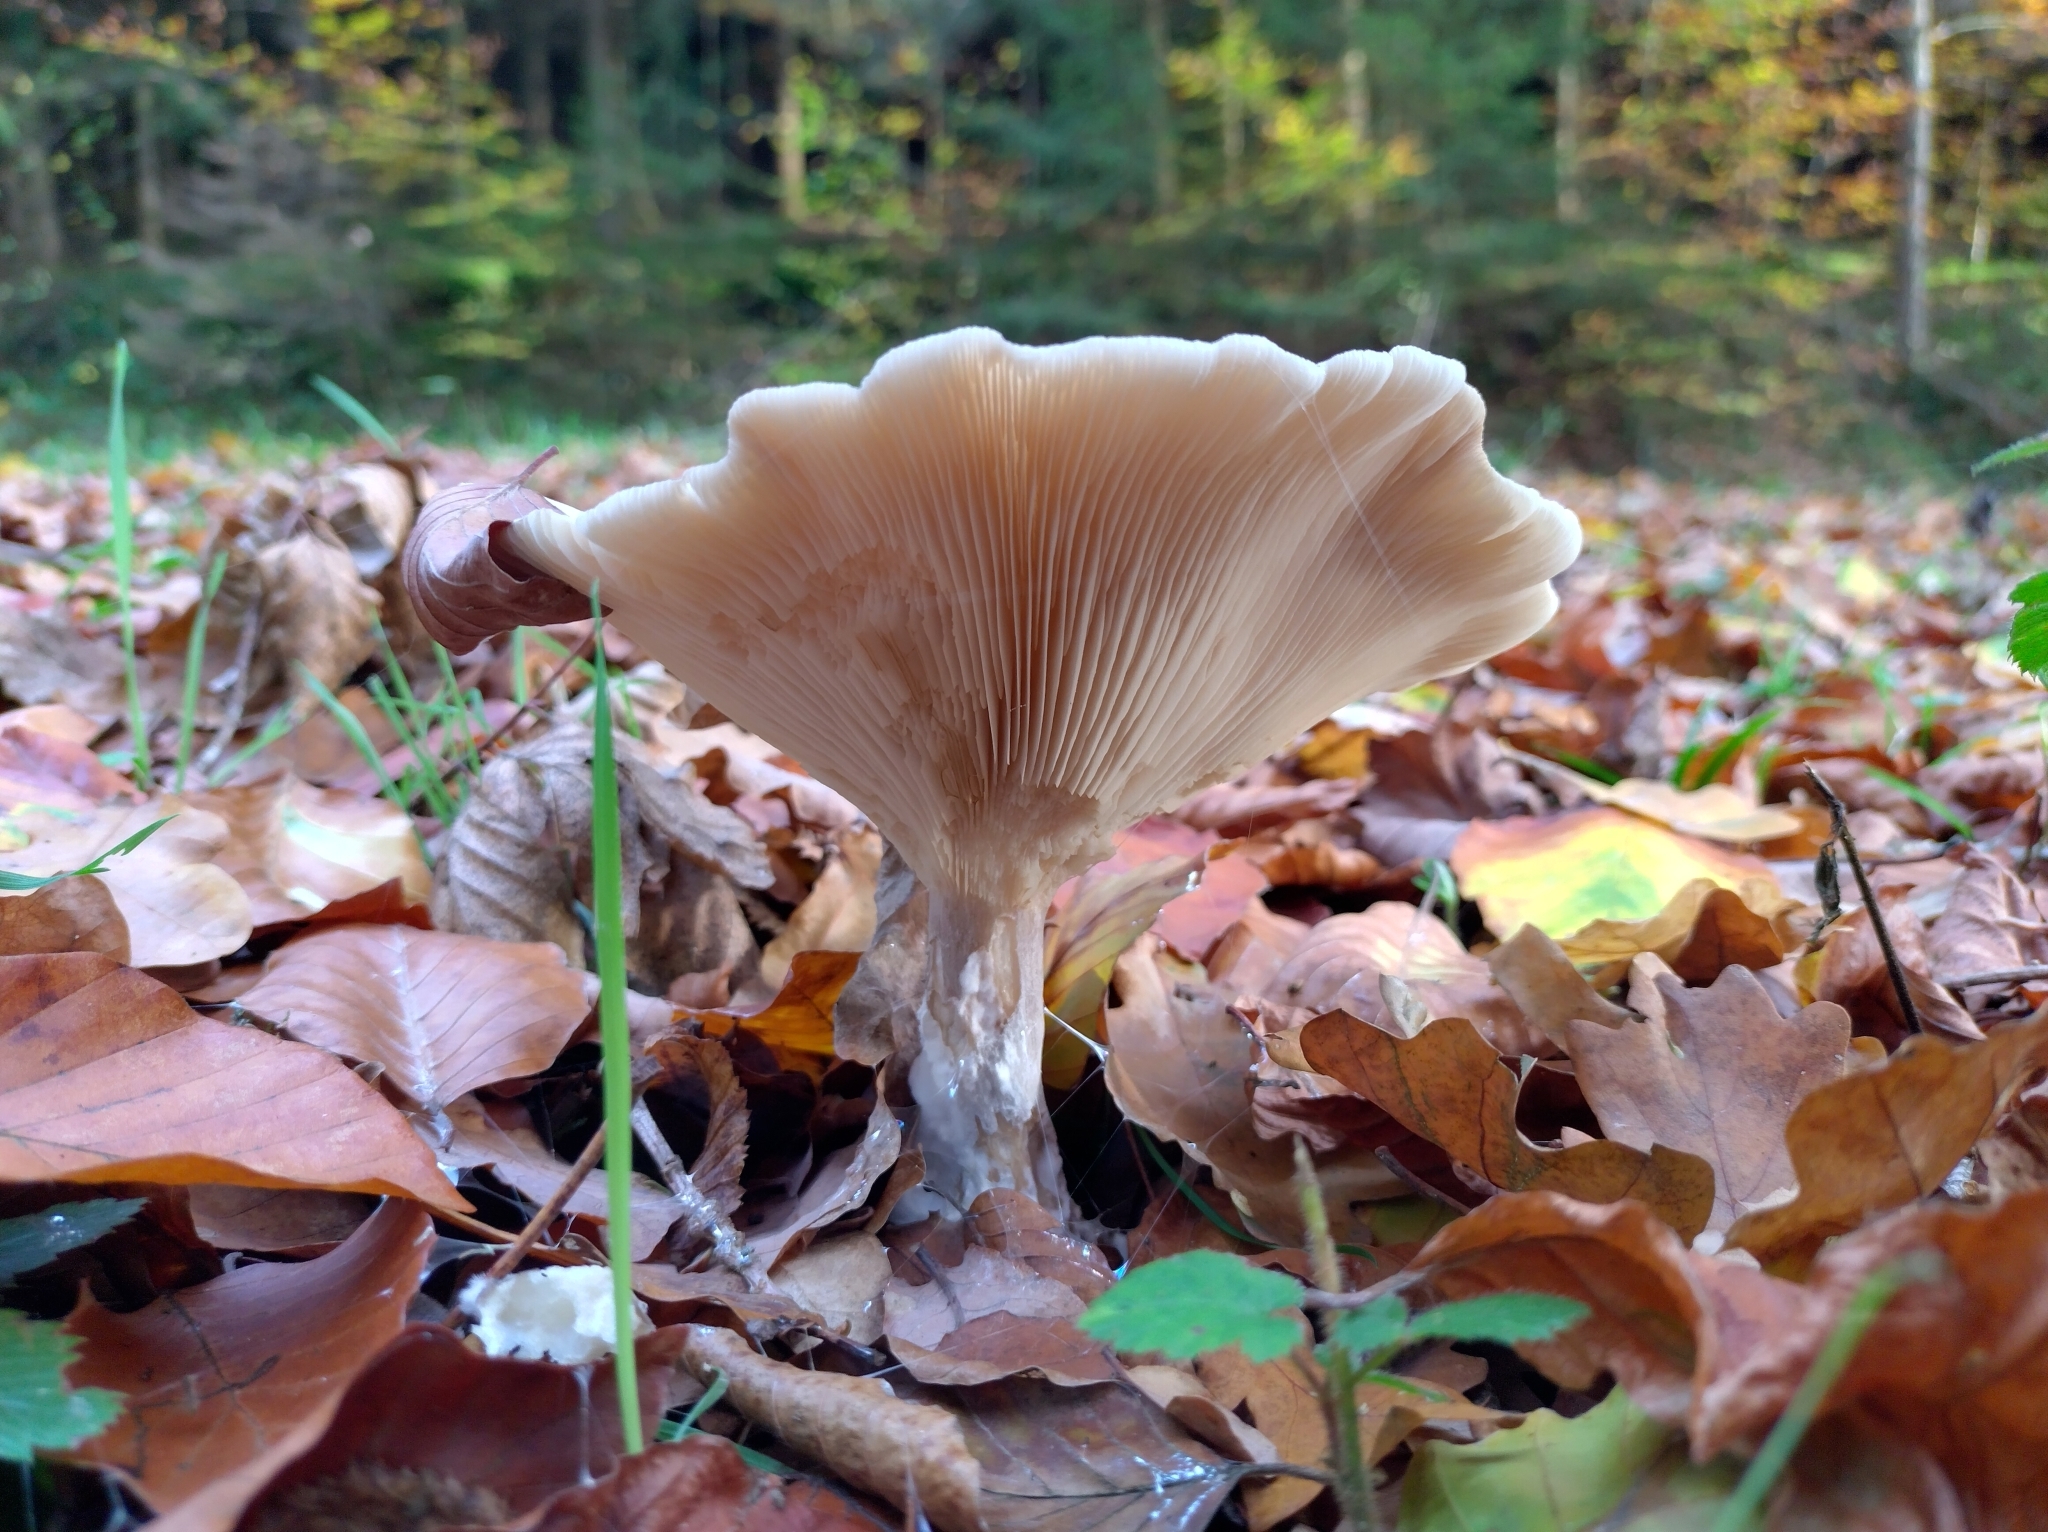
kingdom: Fungi
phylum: Basidiomycota
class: Agaricomycetes
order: Agaricales
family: Tricholomataceae
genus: Clitocybe
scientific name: Clitocybe nebularis
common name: Clouded agaric
